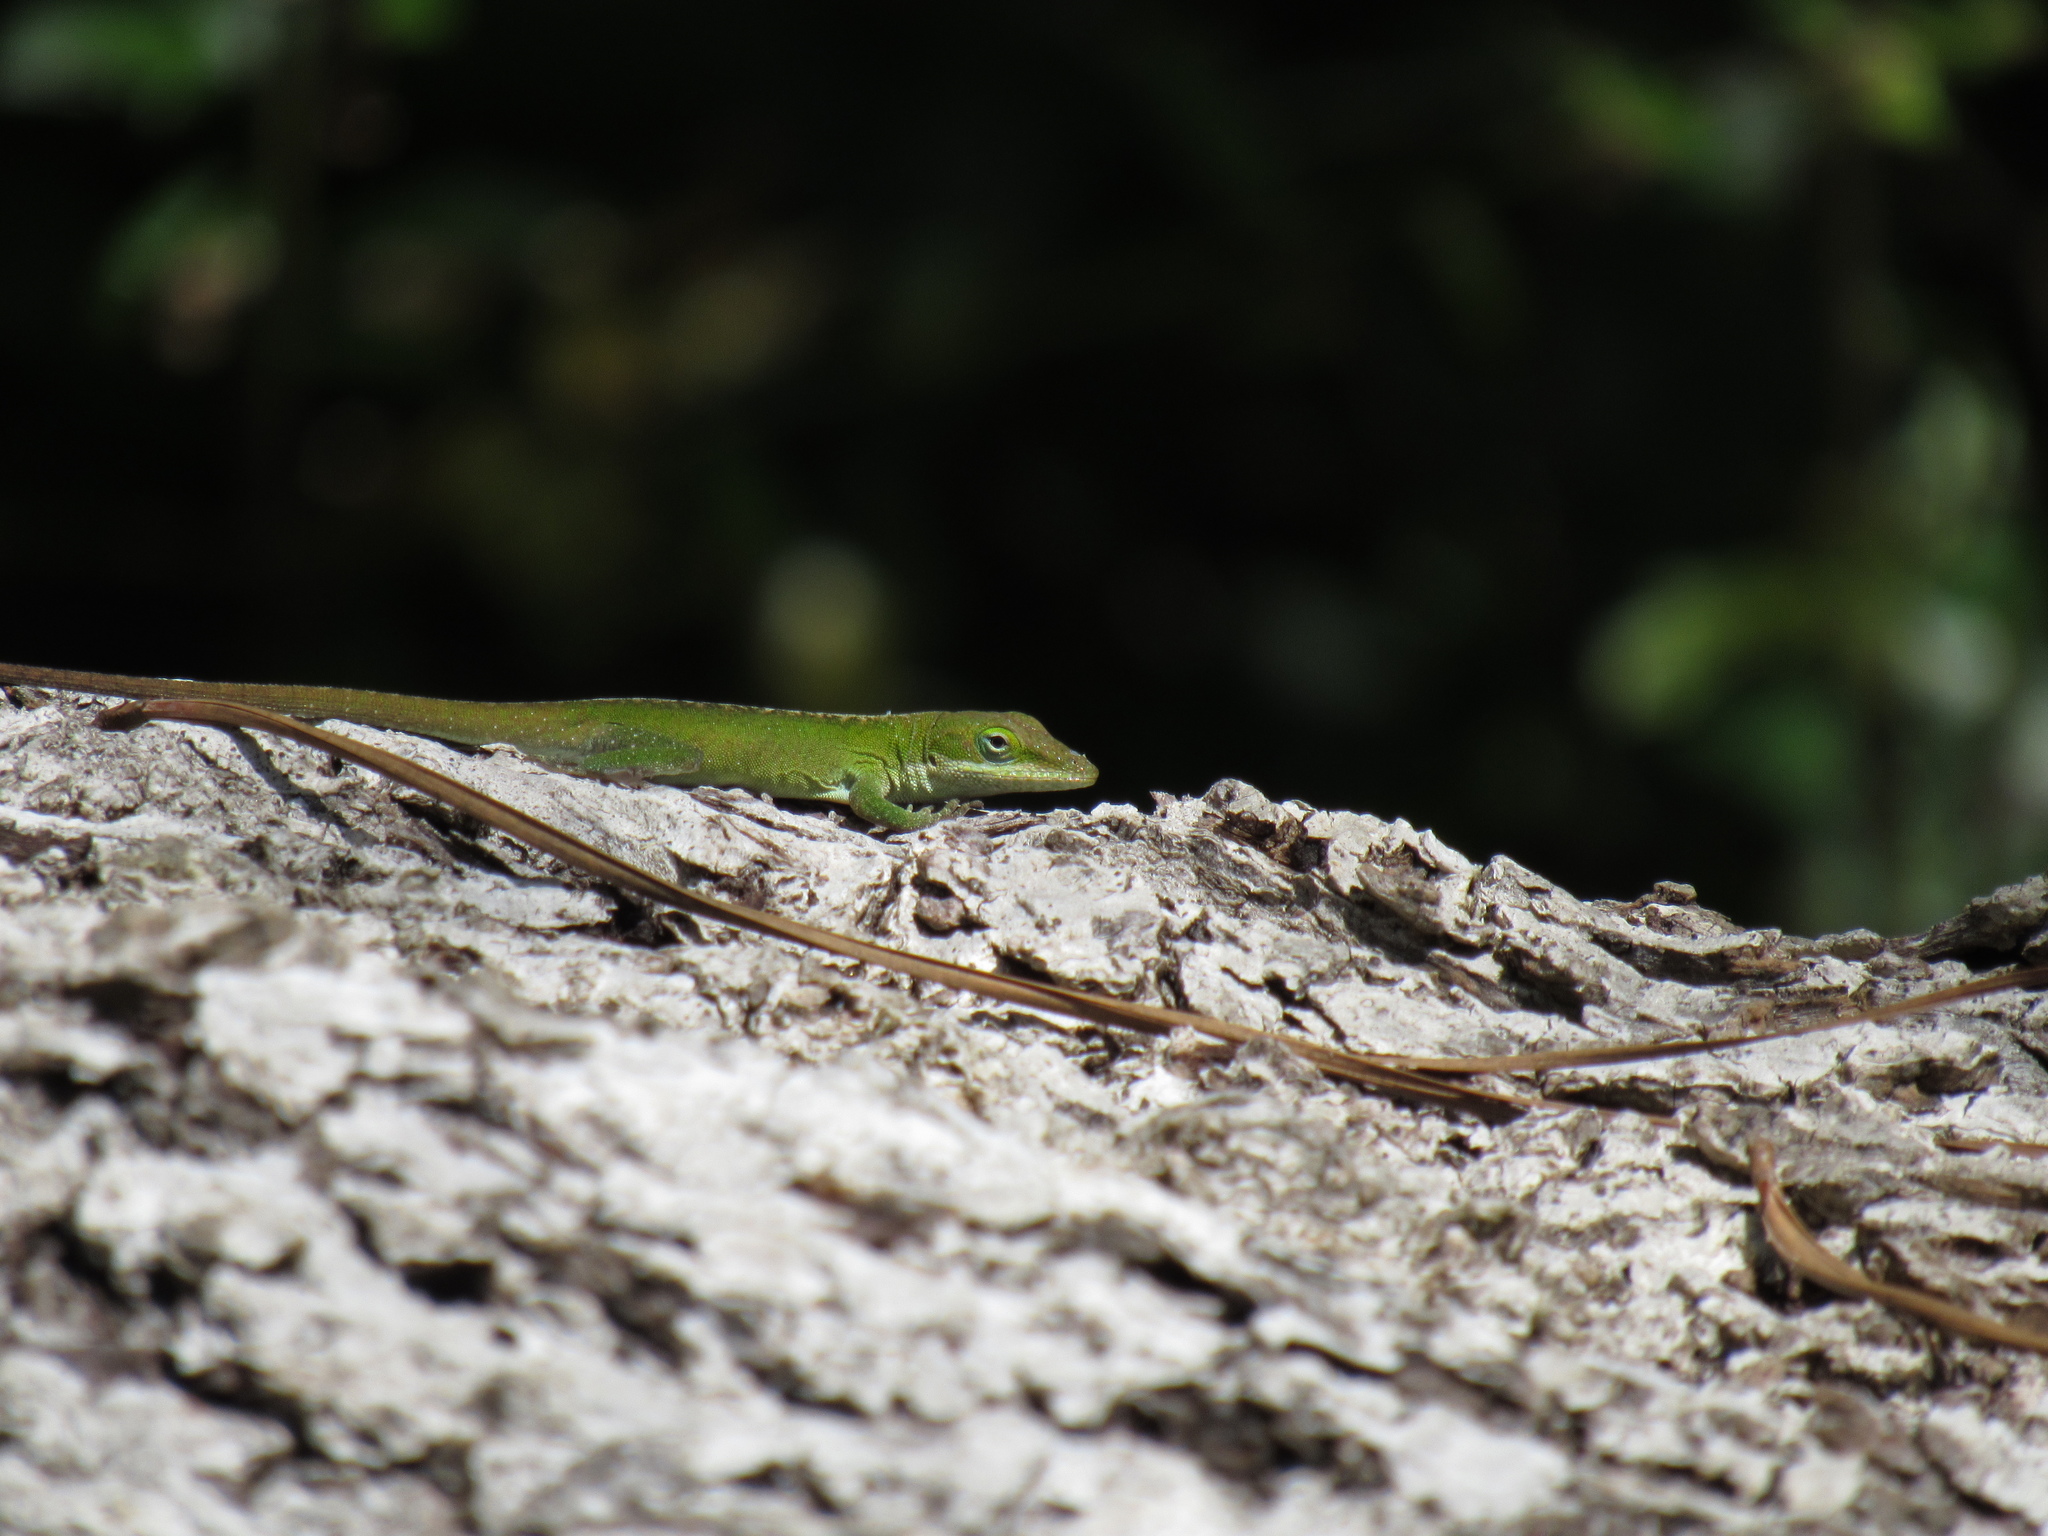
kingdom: Animalia
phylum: Chordata
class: Squamata
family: Dactyloidae
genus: Anolis
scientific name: Anolis carolinensis
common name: Green anole
